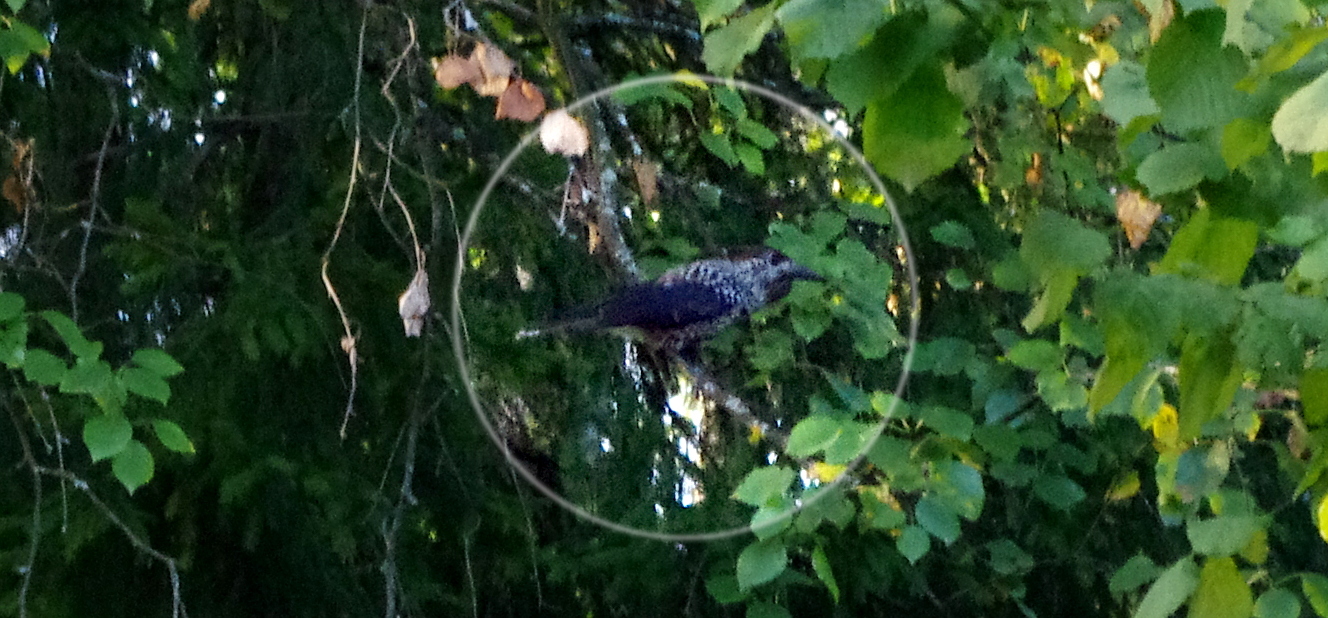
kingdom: Animalia
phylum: Chordata
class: Aves
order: Passeriformes
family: Corvidae
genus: Nucifraga
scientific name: Nucifraga caryocatactes
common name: Spotted nutcracker
